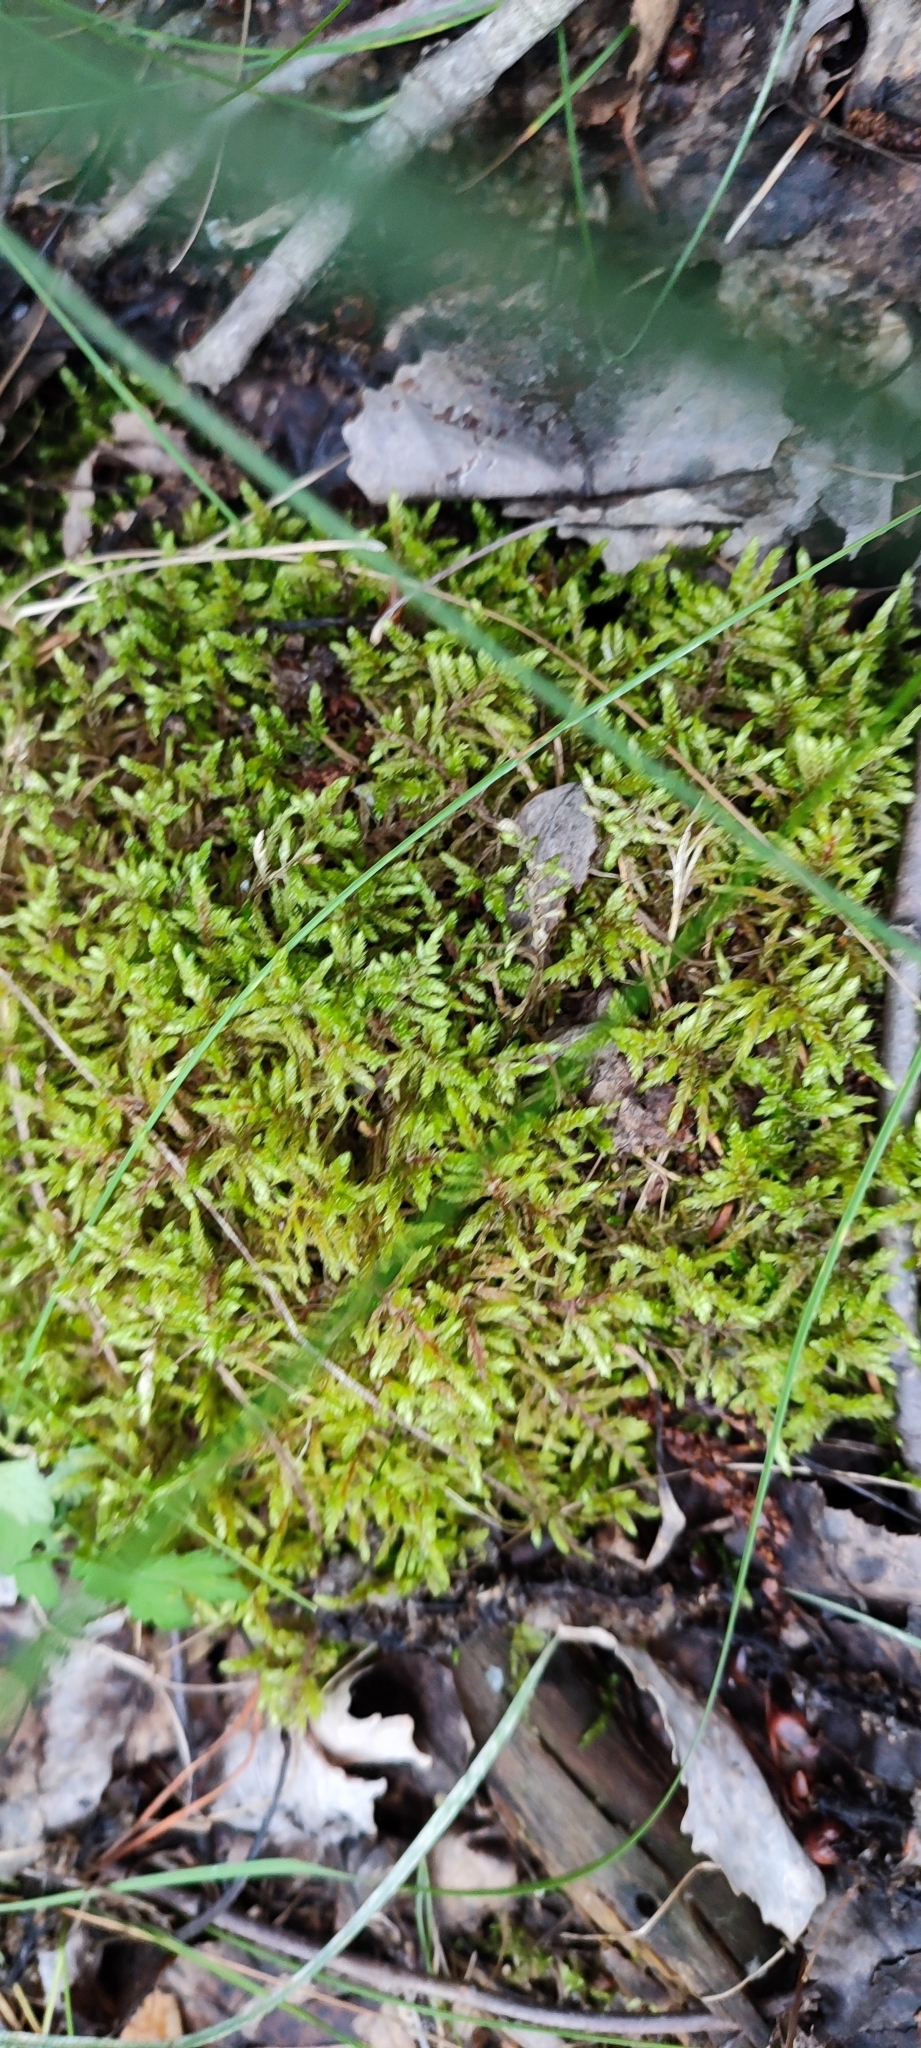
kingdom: Plantae
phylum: Bryophyta
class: Bryopsida
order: Hypnales
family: Hylocomiaceae
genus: Pleurozium
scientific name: Pleurozium schreberi
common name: Red-stemmed feather moss
